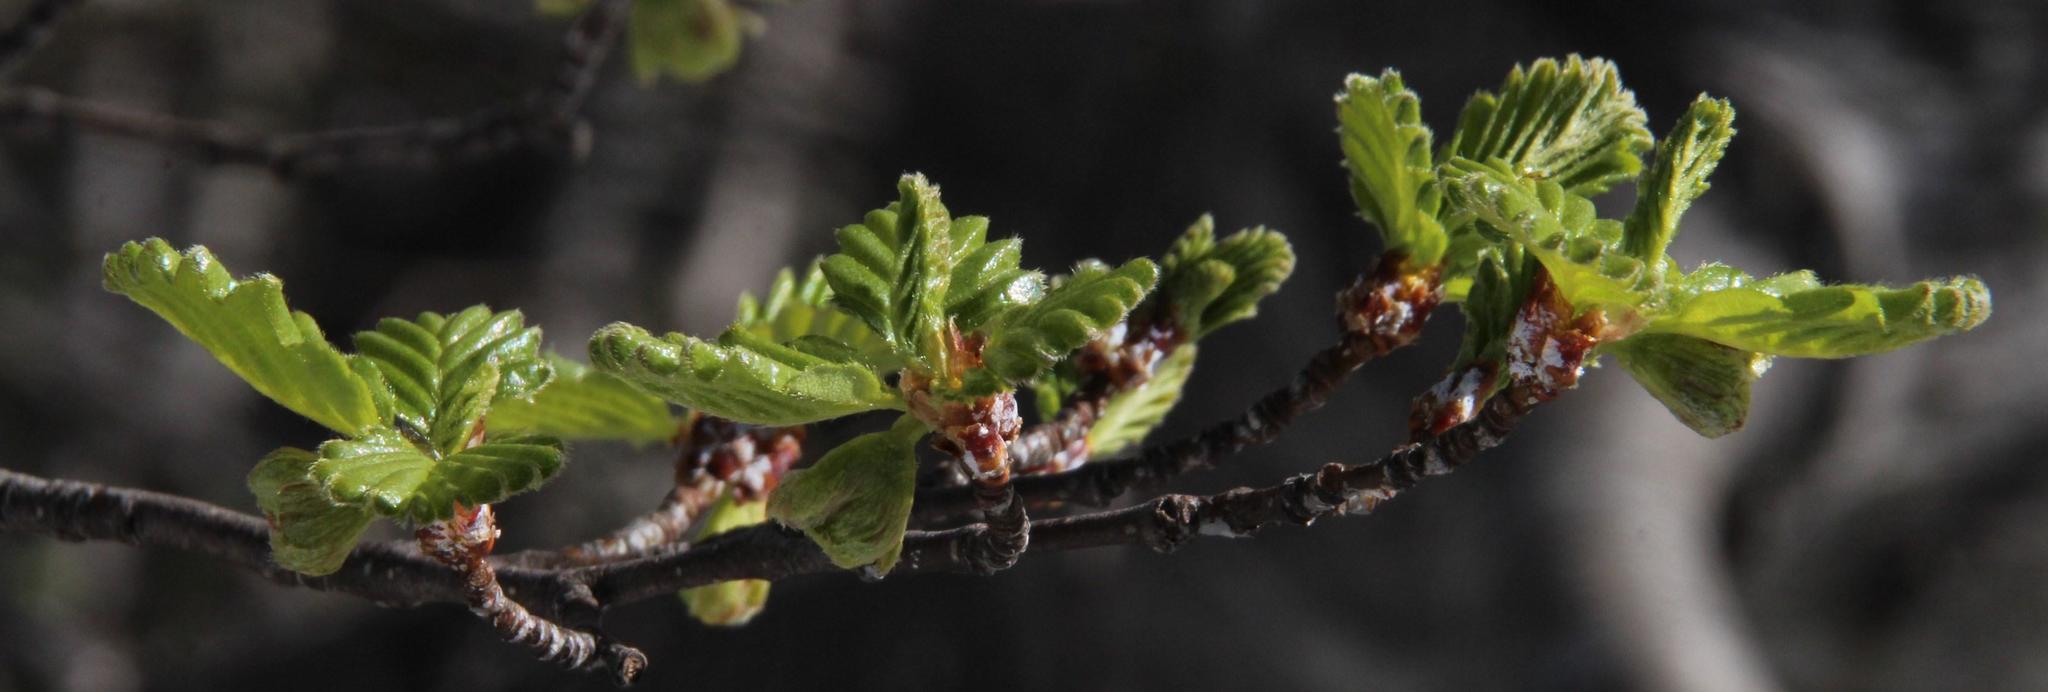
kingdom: Plantae
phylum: Tracheophyta
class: Magnoliopsida
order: Fagales
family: Nothofagaceae
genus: Nothofagus
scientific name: Nothofagus pumilio
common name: Lenga beech
